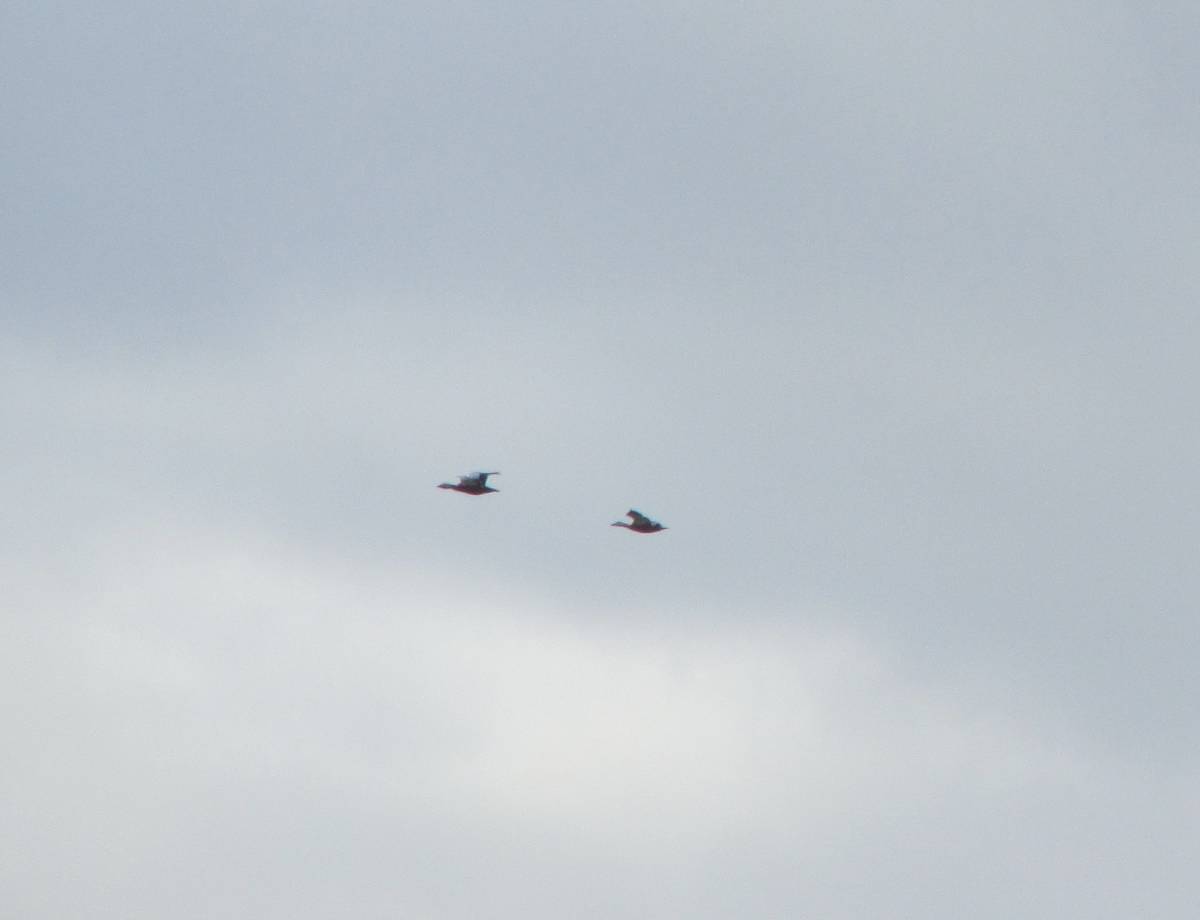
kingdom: Animalia
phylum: Chordata
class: Aves
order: Anseriformes
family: Anatidae
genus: Tadorna
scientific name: Tadorna ferruginea
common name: Ruddy shelduck
